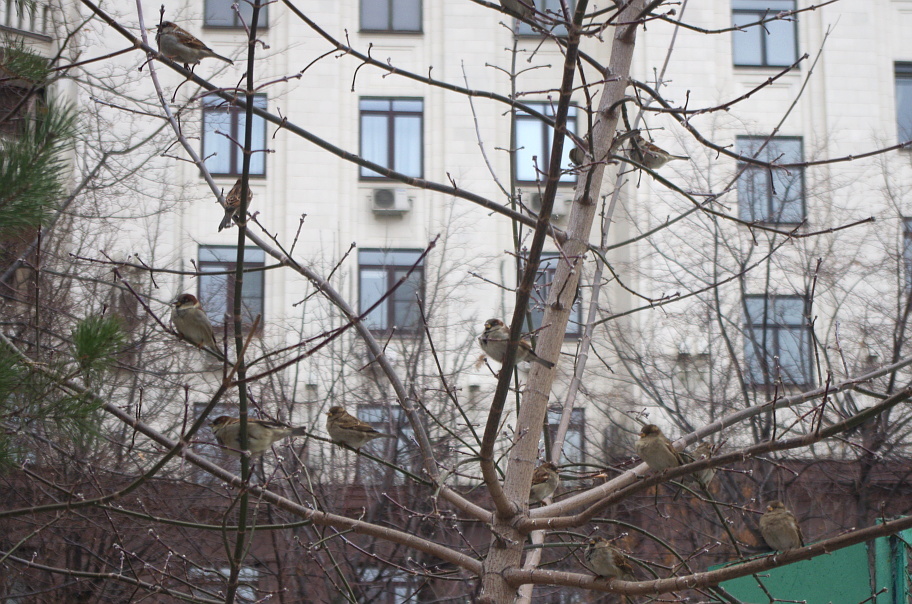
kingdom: Animalia
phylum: Chordata
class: Aves
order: Passeriformes
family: Passeridae
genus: Passer
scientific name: Passer domesticus
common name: House sparrow
